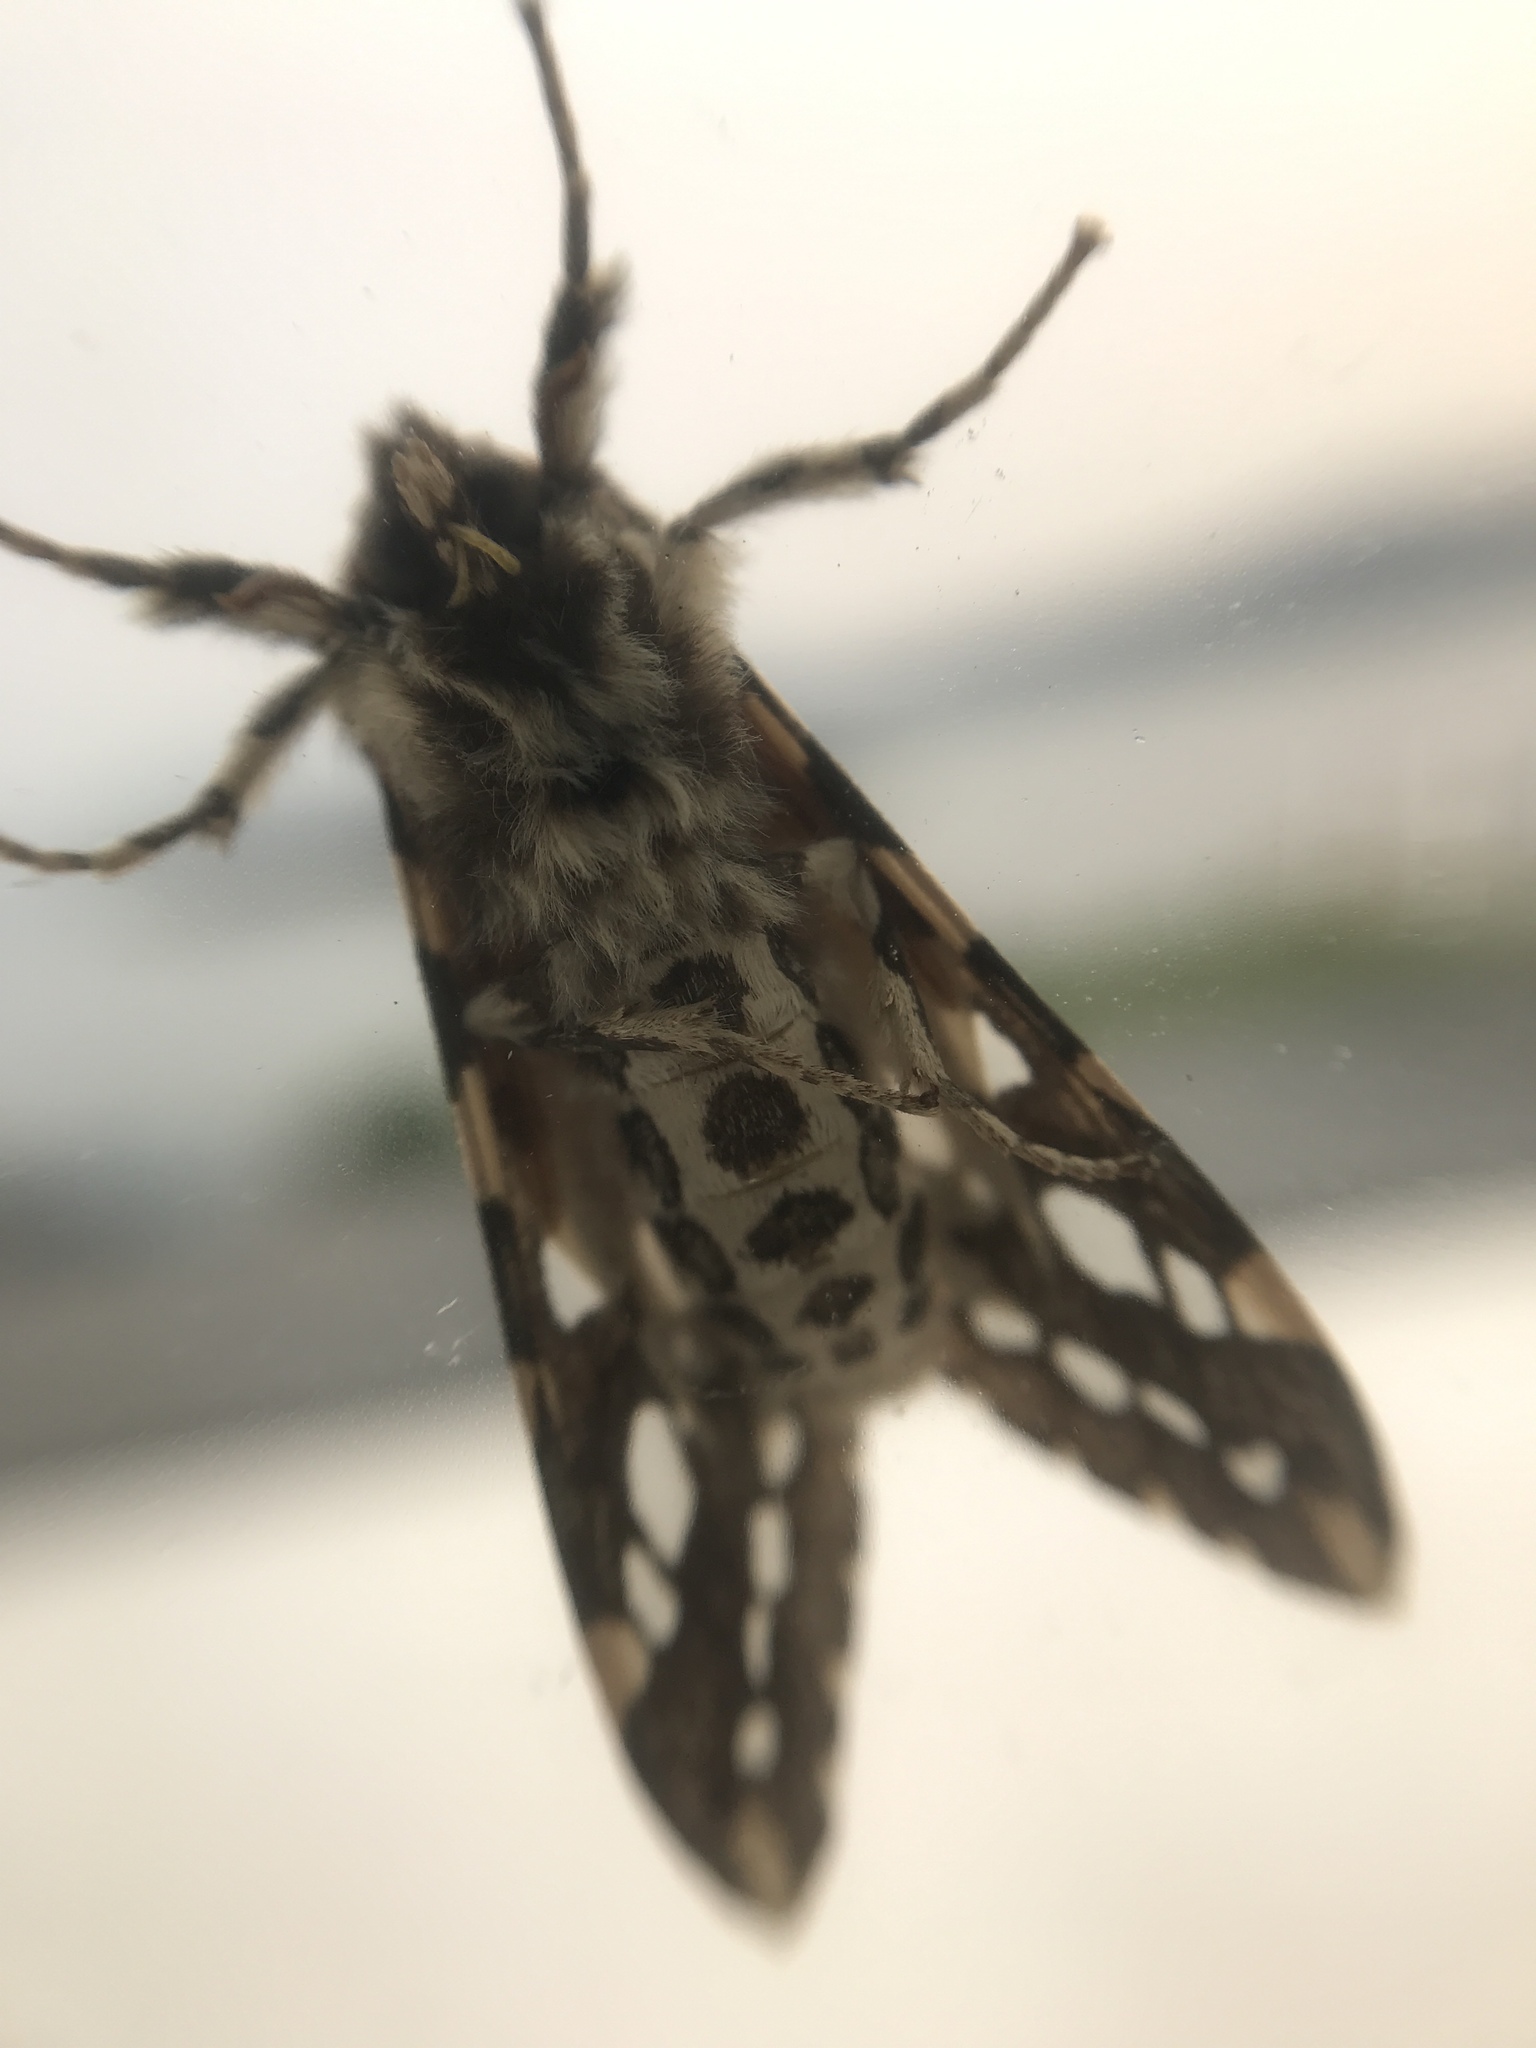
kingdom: Animalia
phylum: Arthropoda
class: Insecta
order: Lepidoptera
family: Erebidae
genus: Lophocampa
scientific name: Lophocampa argentata
